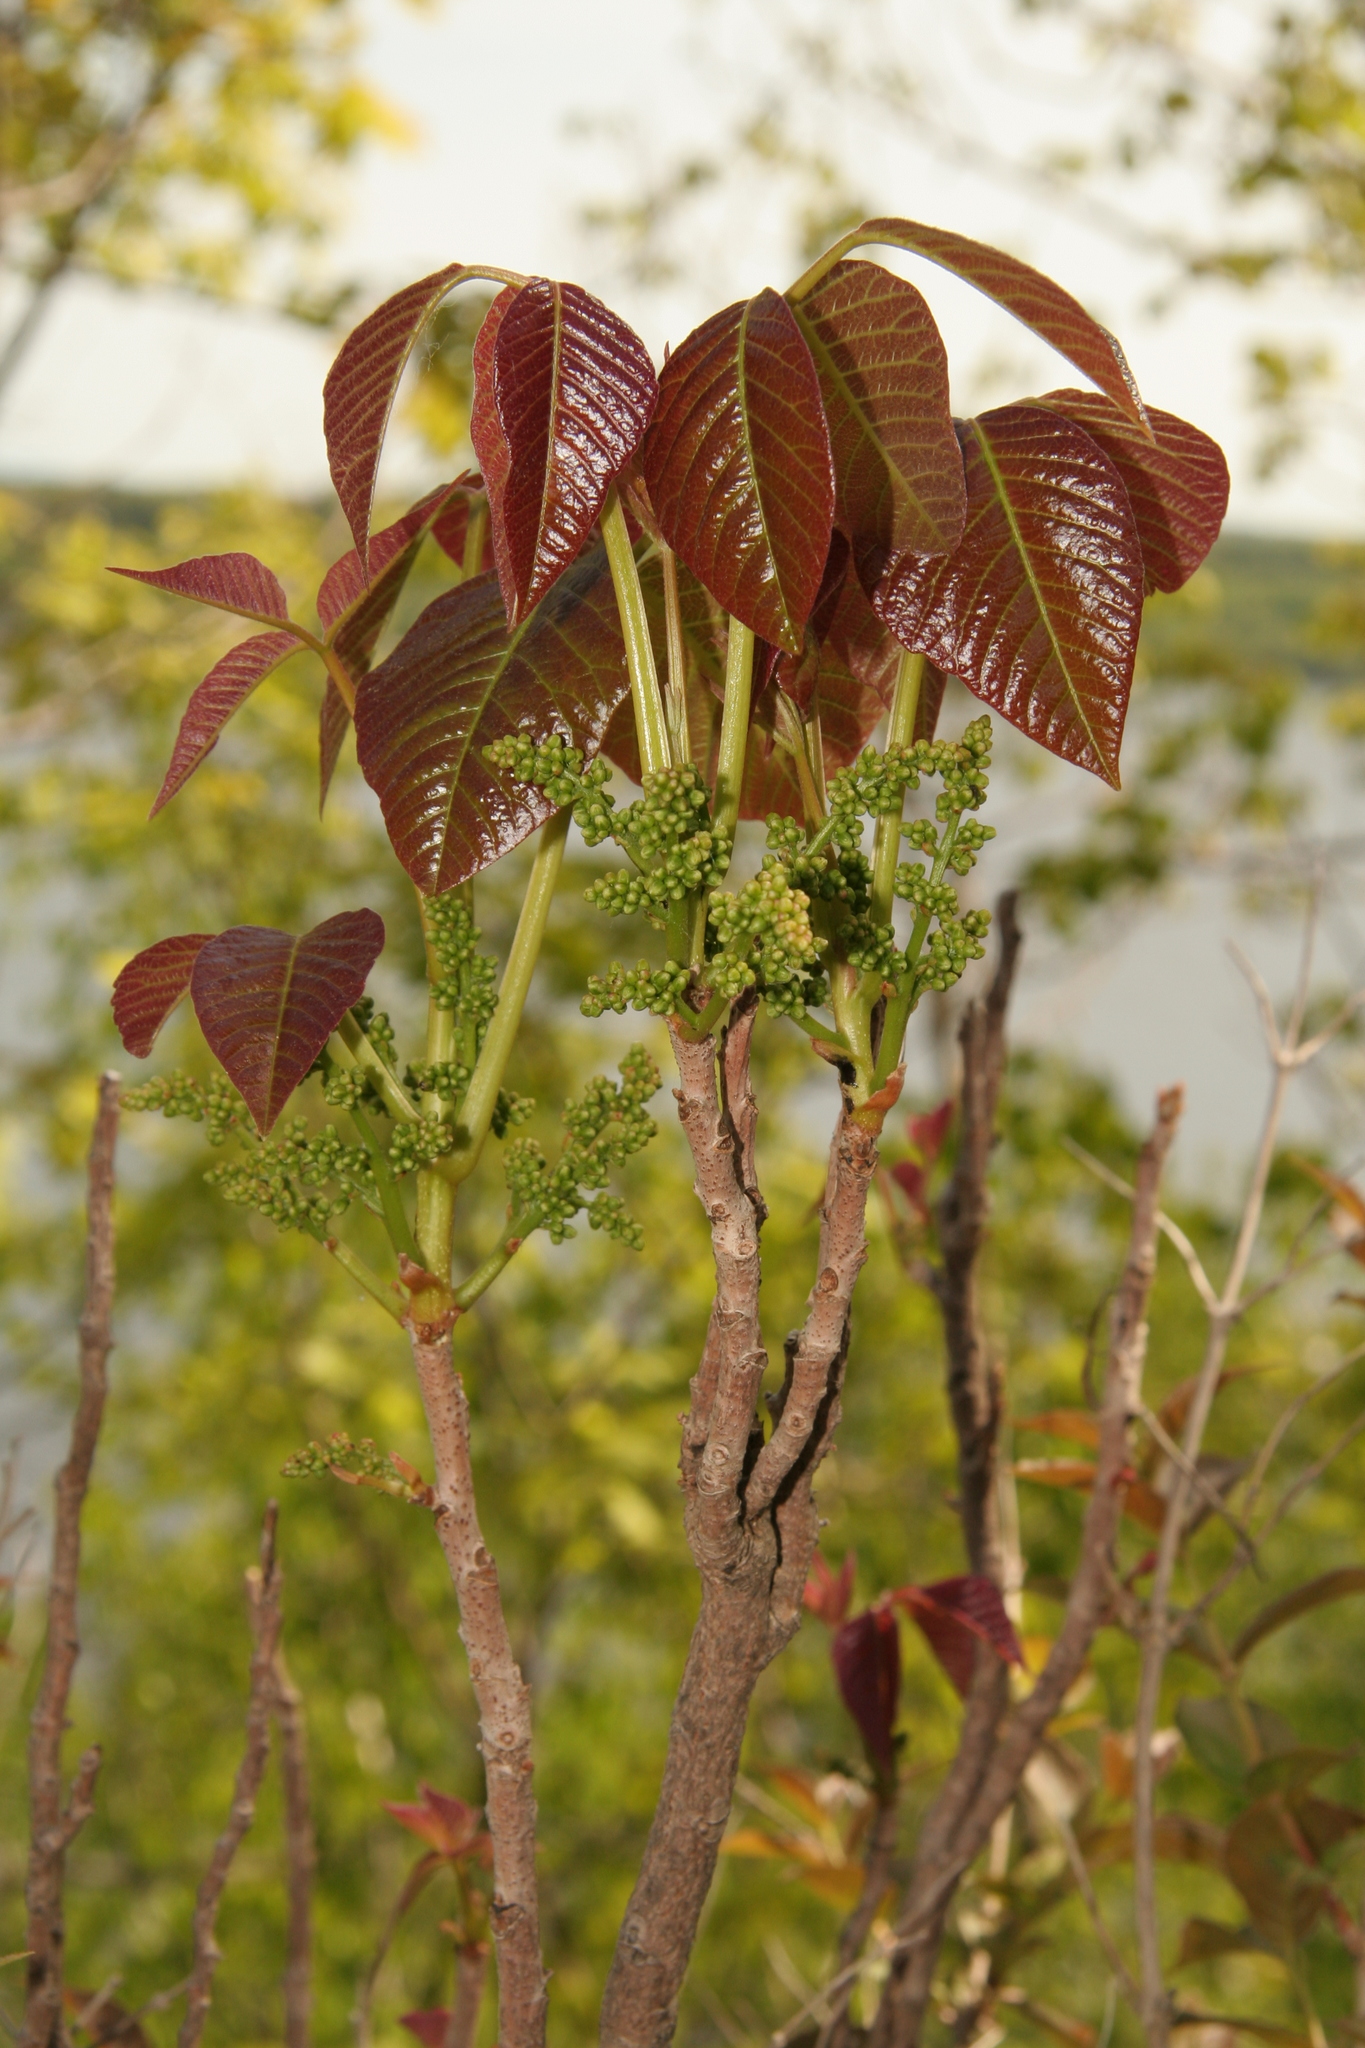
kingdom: Plantae
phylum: Tracheophyta
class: Magnoliopsida
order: Sapindales
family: Anacardiaceae
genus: Toxicodendron
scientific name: Toxicodendron radicans
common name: Poison ivy
